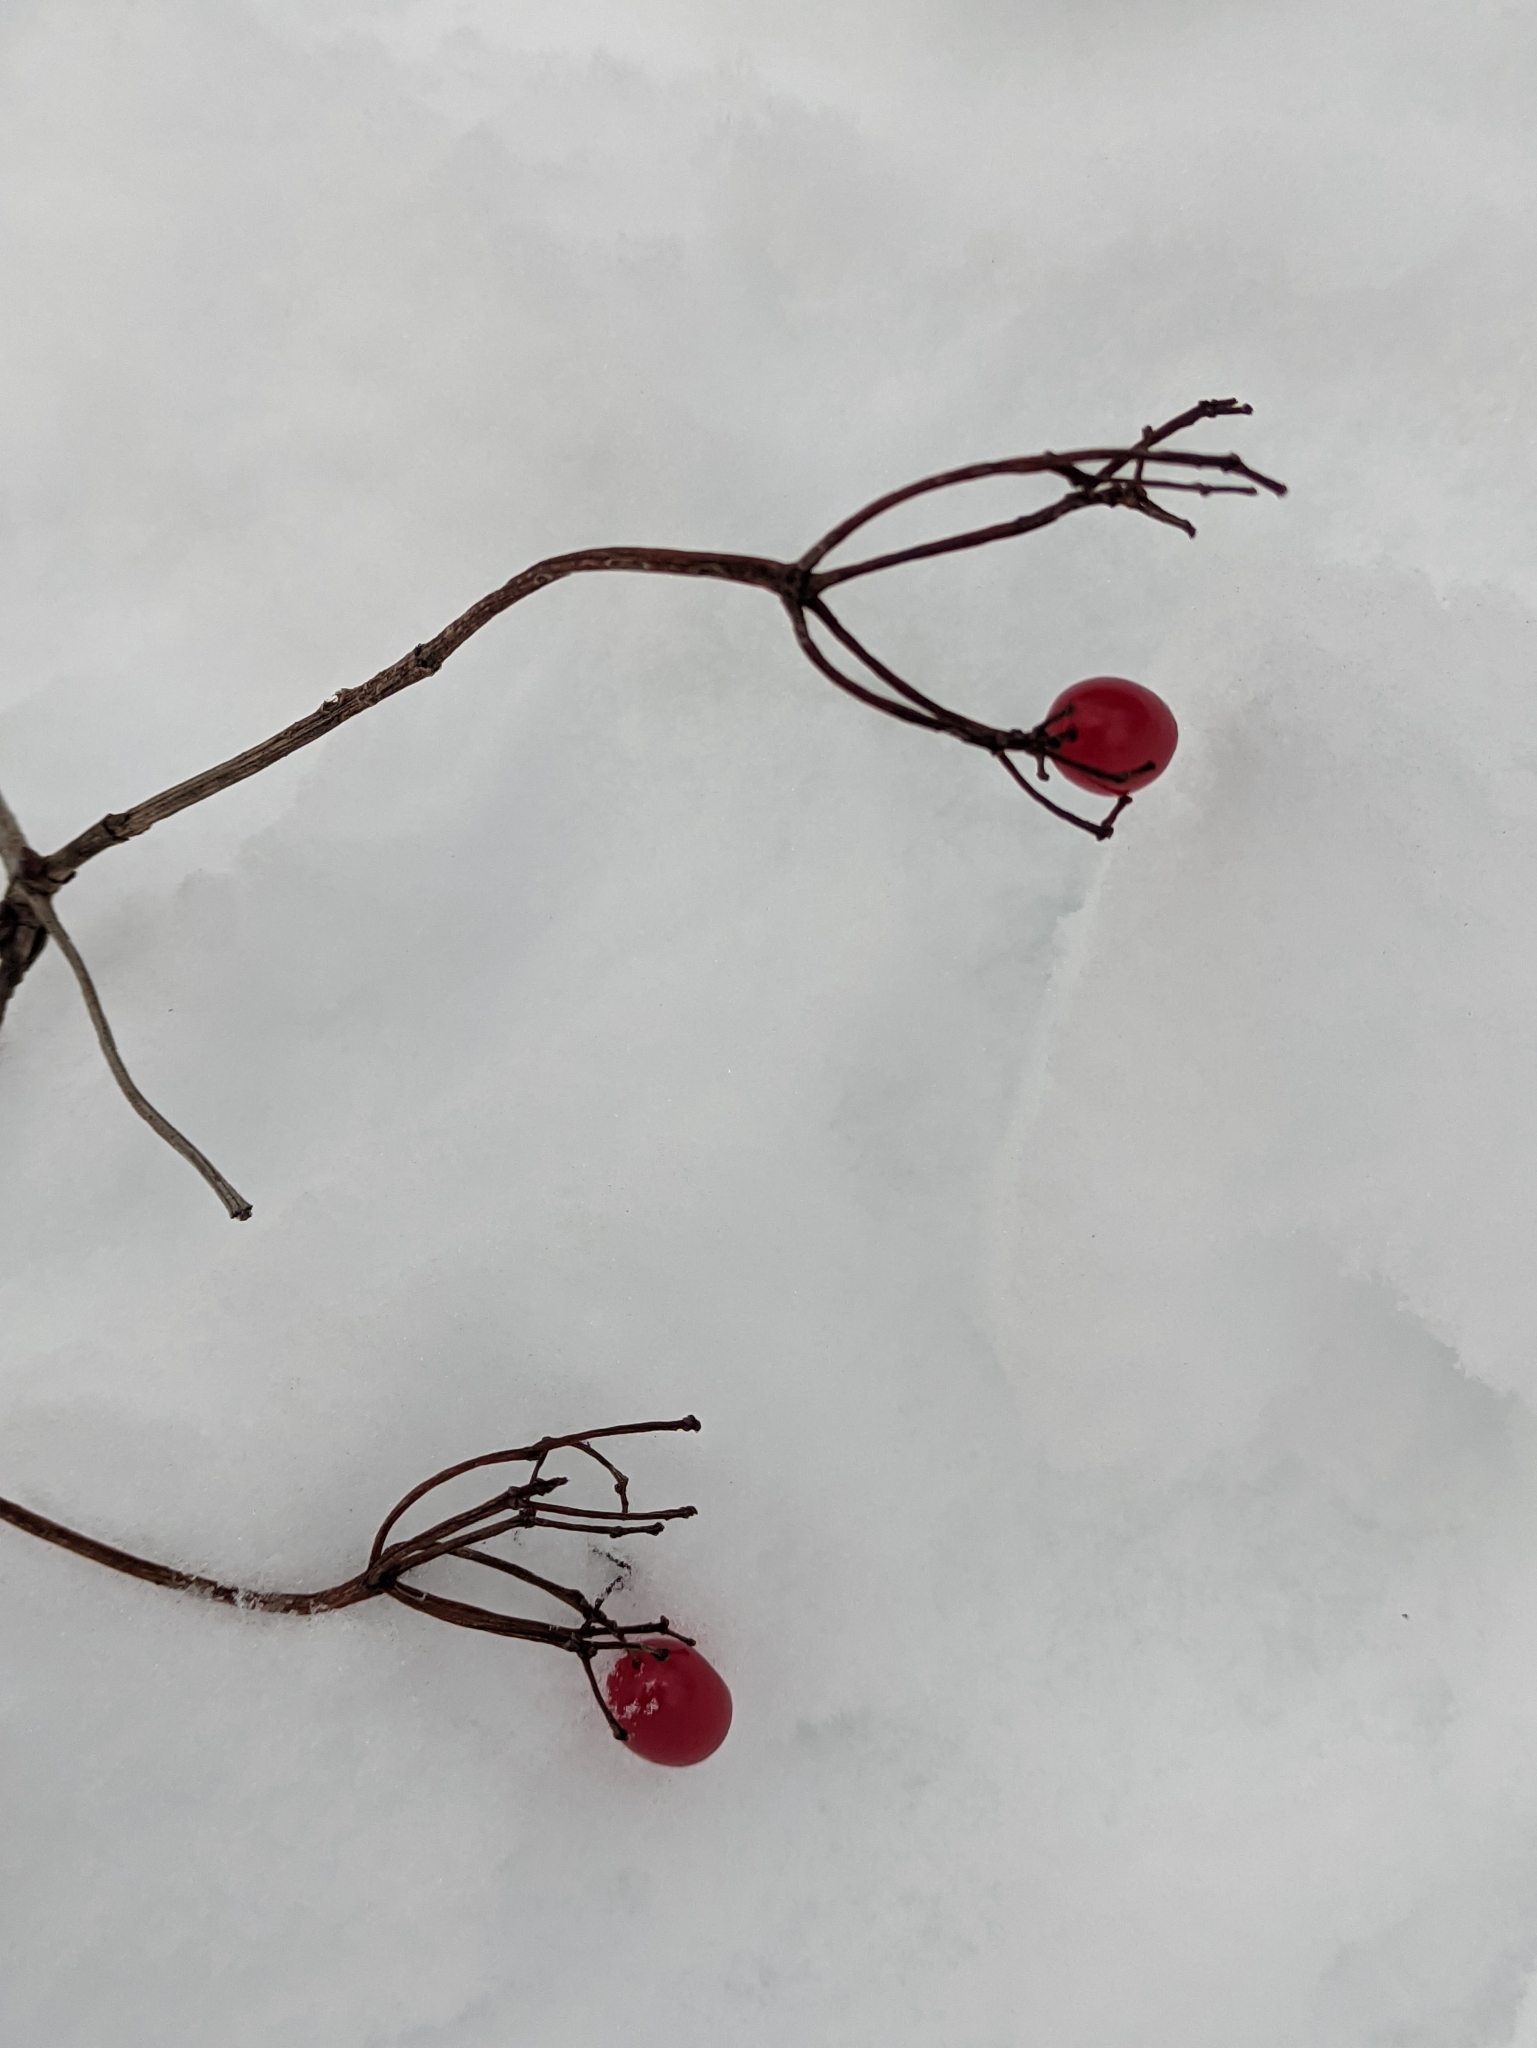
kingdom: Plantae
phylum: Tracheophyta
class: Magnoliopsida
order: Dipsacales
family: Viburnaceae
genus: Viburnum
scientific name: Viburnum opulus
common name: Guelder-rose
